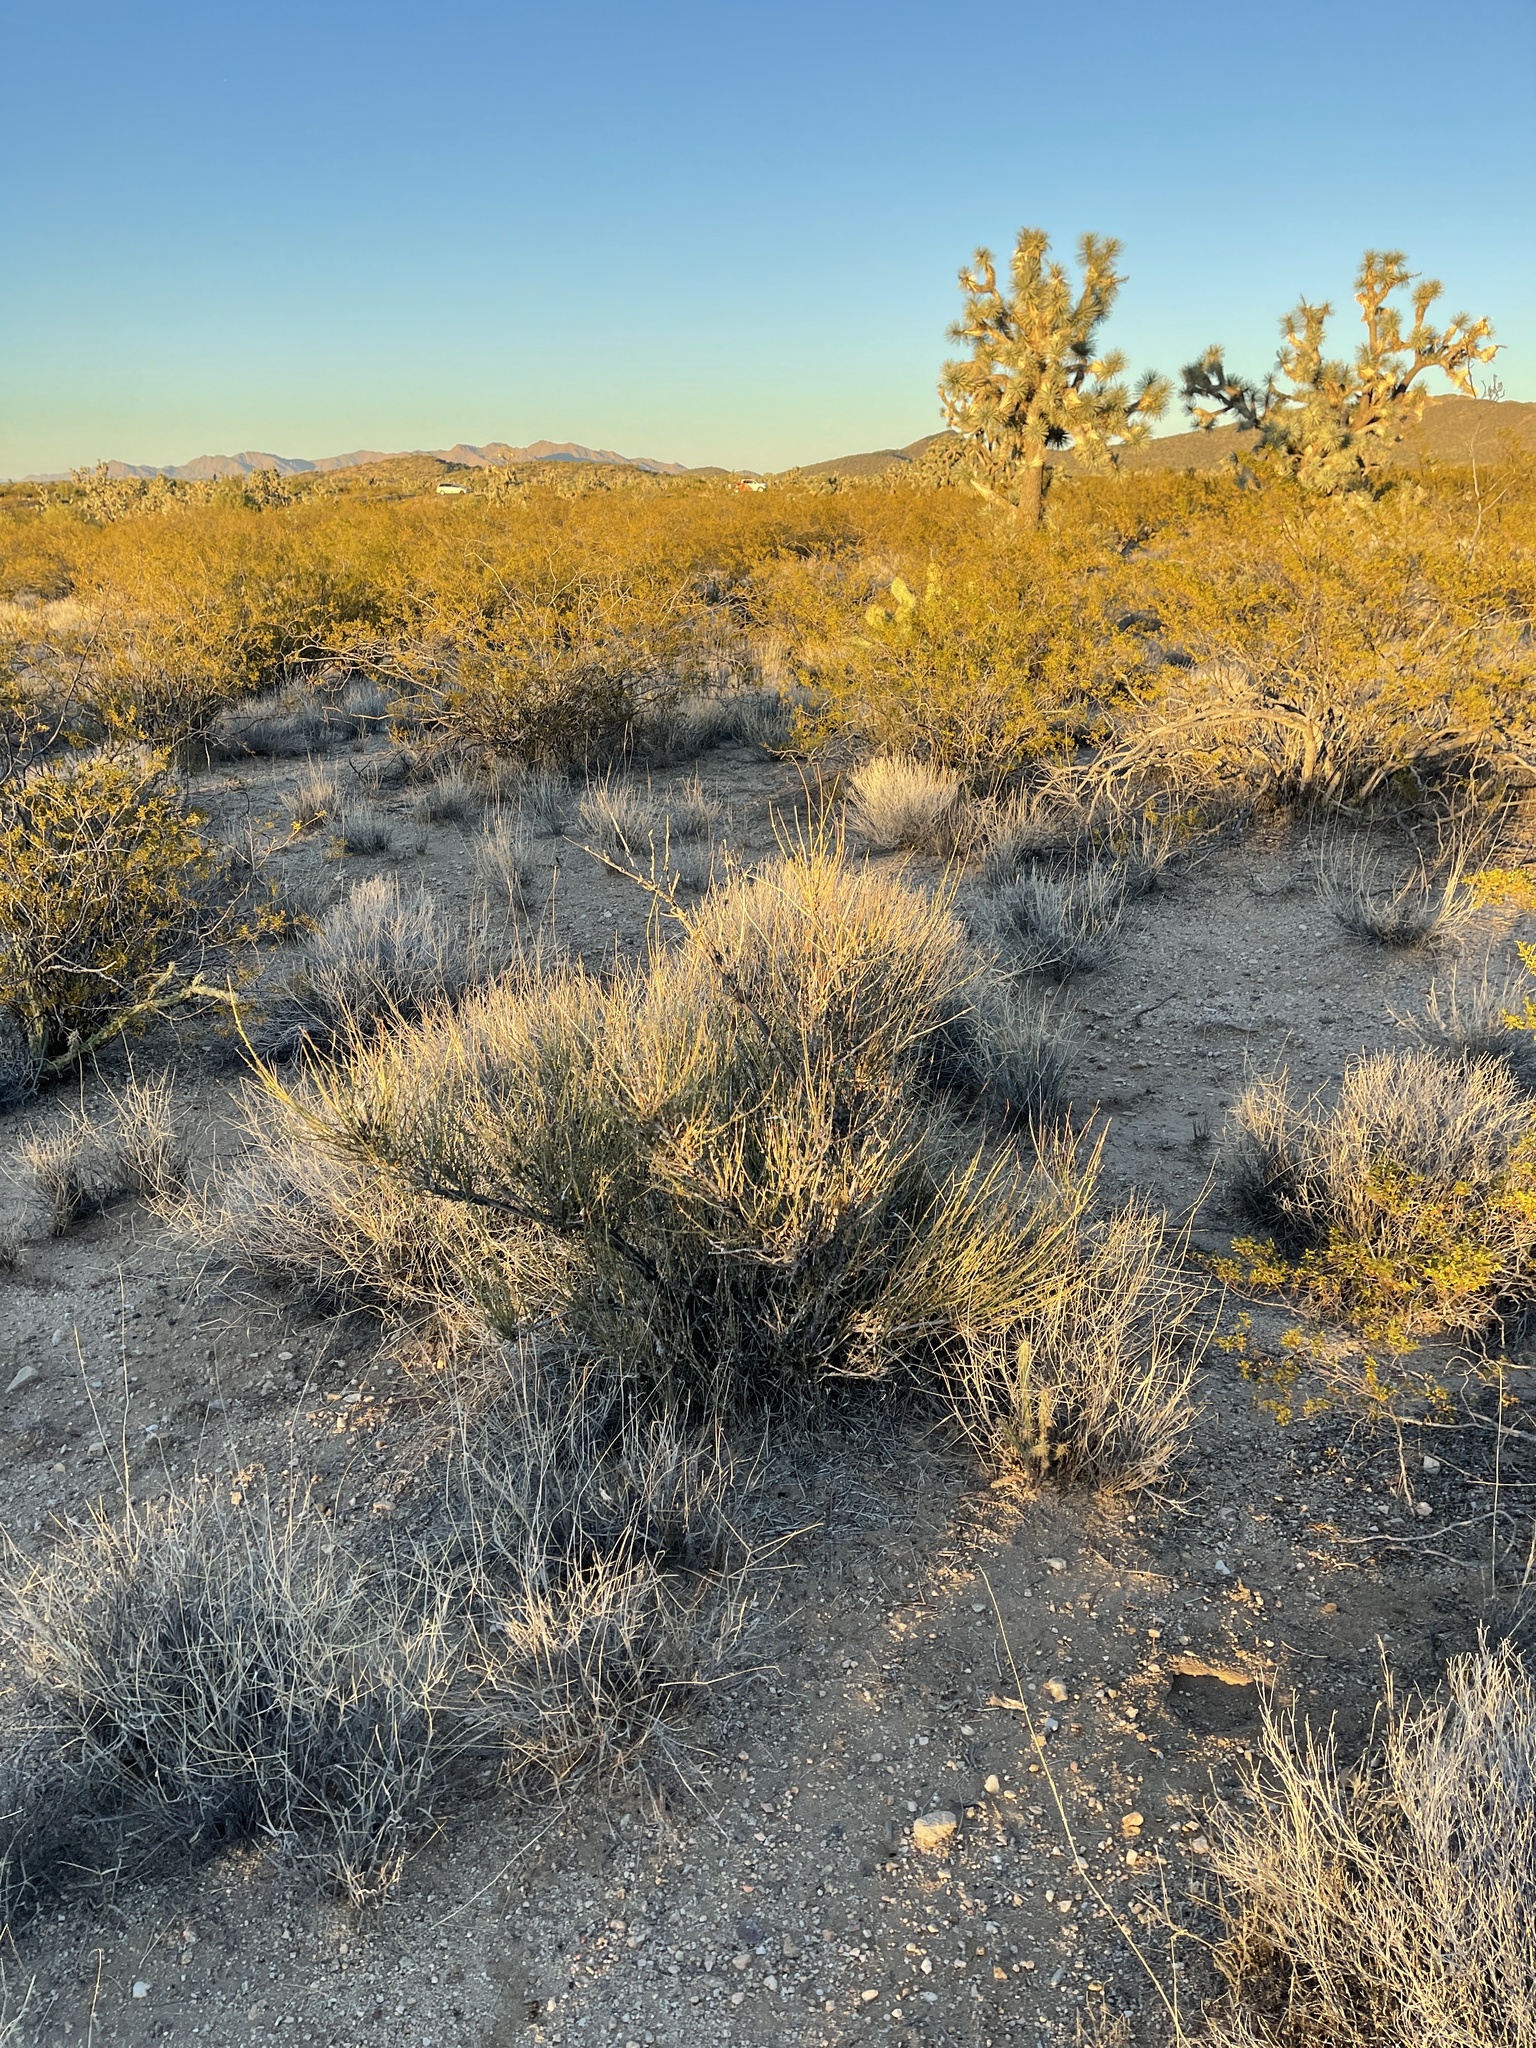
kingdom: Plantae
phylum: Tracheophyta
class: Gnetopsida
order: Ephedrales
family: Ephedraceae
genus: Ephedra
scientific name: Ephedra aspera
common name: Boundary ephedra
